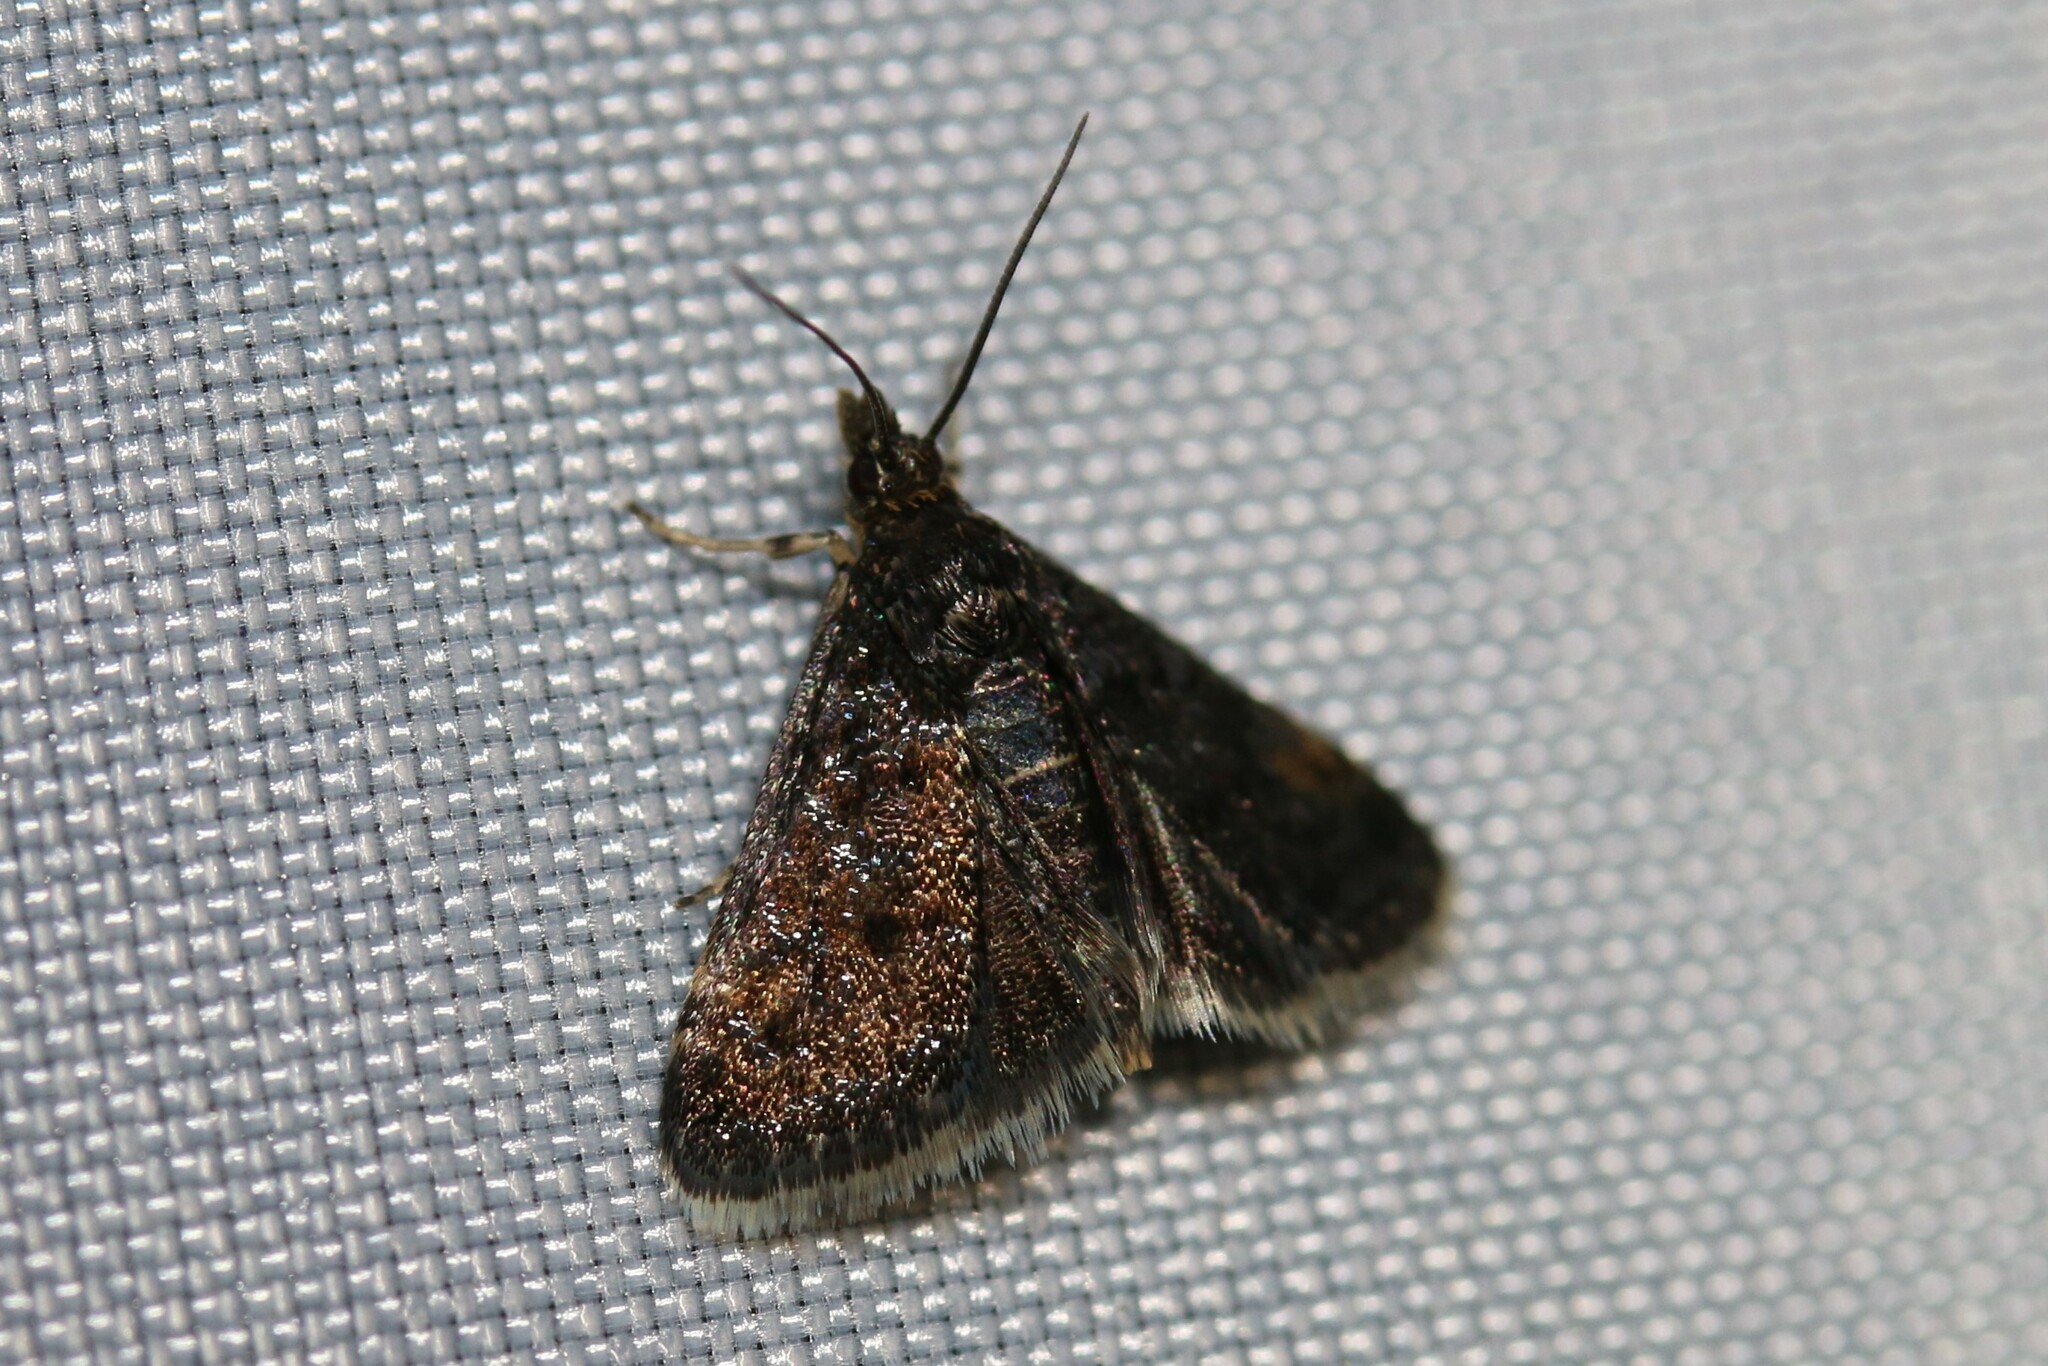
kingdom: Animalia
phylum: Arthropoda
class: Insecta
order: Lepidoptera
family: Crambidae
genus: Heliothela
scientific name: Heliothela wulfeniana
